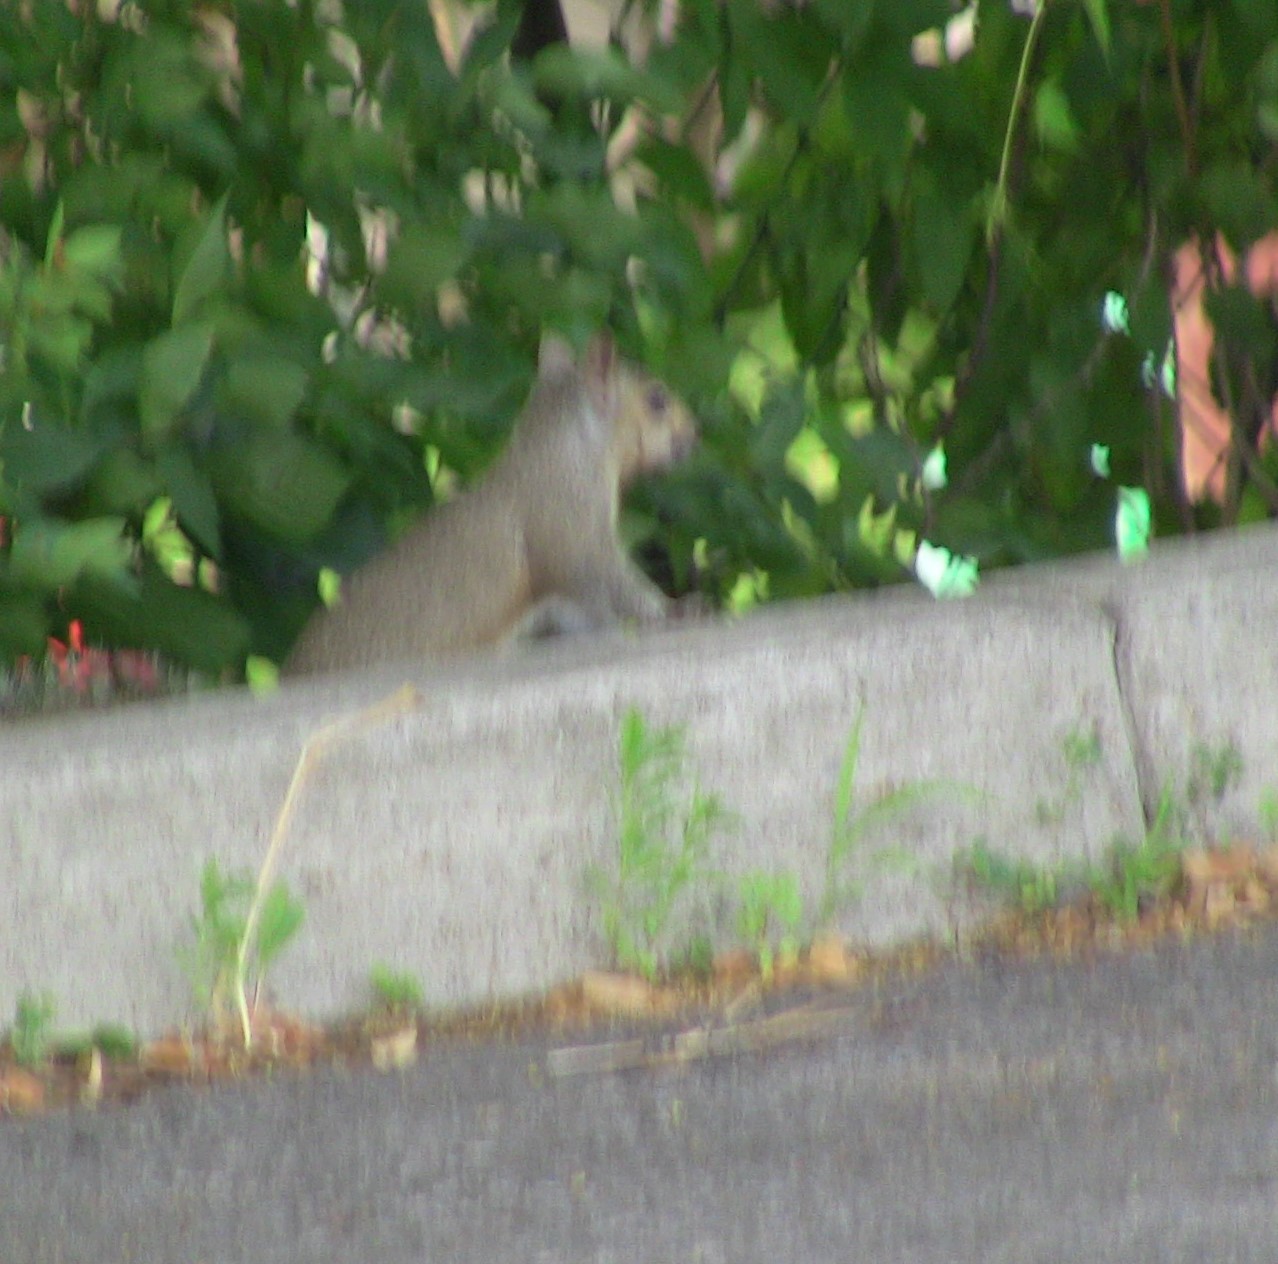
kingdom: Animalia
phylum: Chordata
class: Mammalia
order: Rodentia
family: Sciuridae
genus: Sciurus
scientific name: Sciurus carolinensis
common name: Eastern gray squirrel
